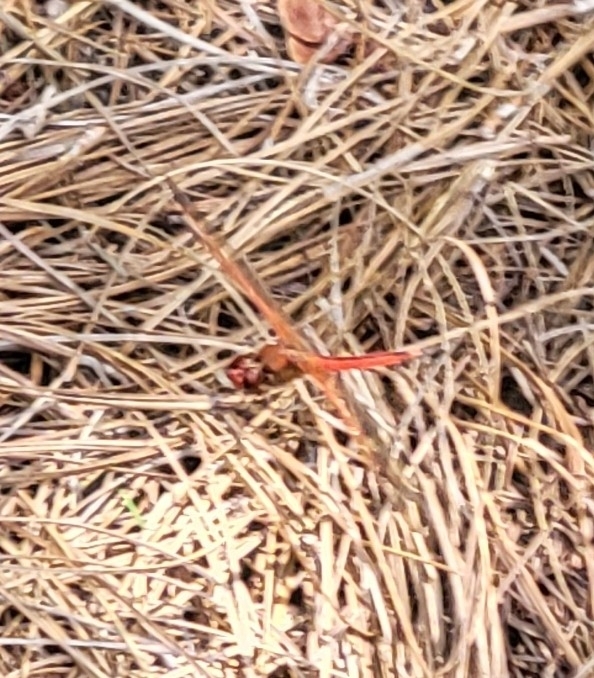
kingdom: Animalia
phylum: Arthropoda
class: Insecta
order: Odonata
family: Libellulidae
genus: Libellula
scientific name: Libellula needhami
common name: Needham's skimmer
